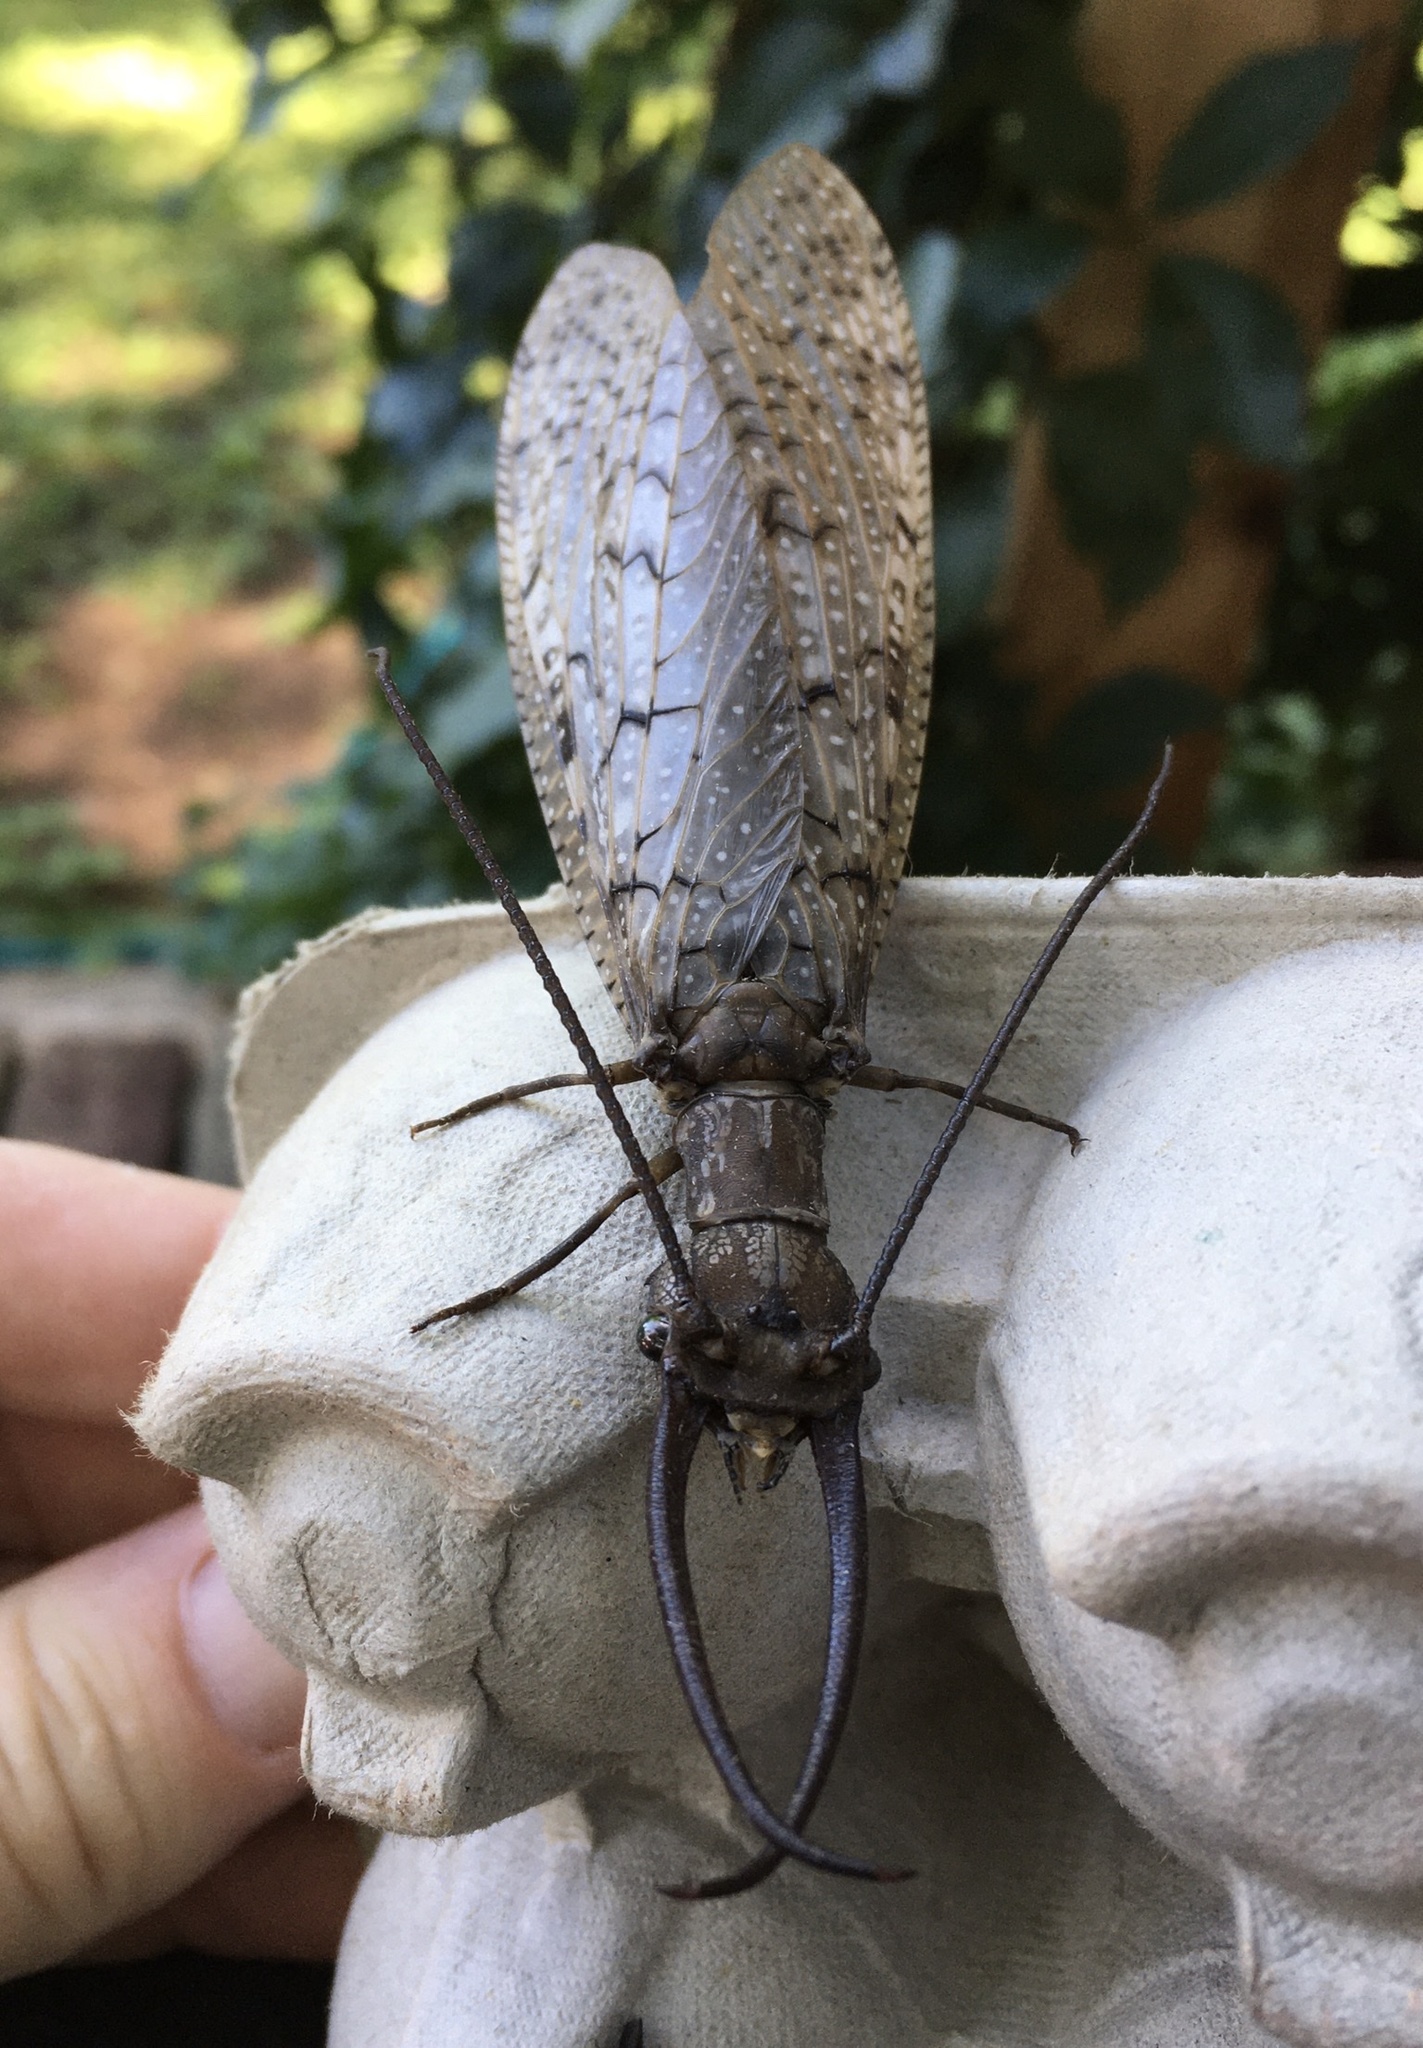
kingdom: Animalia
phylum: Arthropoda
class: Insecta
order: Megaloptera
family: Corydalidae
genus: Corydalus
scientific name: Corydalus cornutus
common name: Dobsonfly
